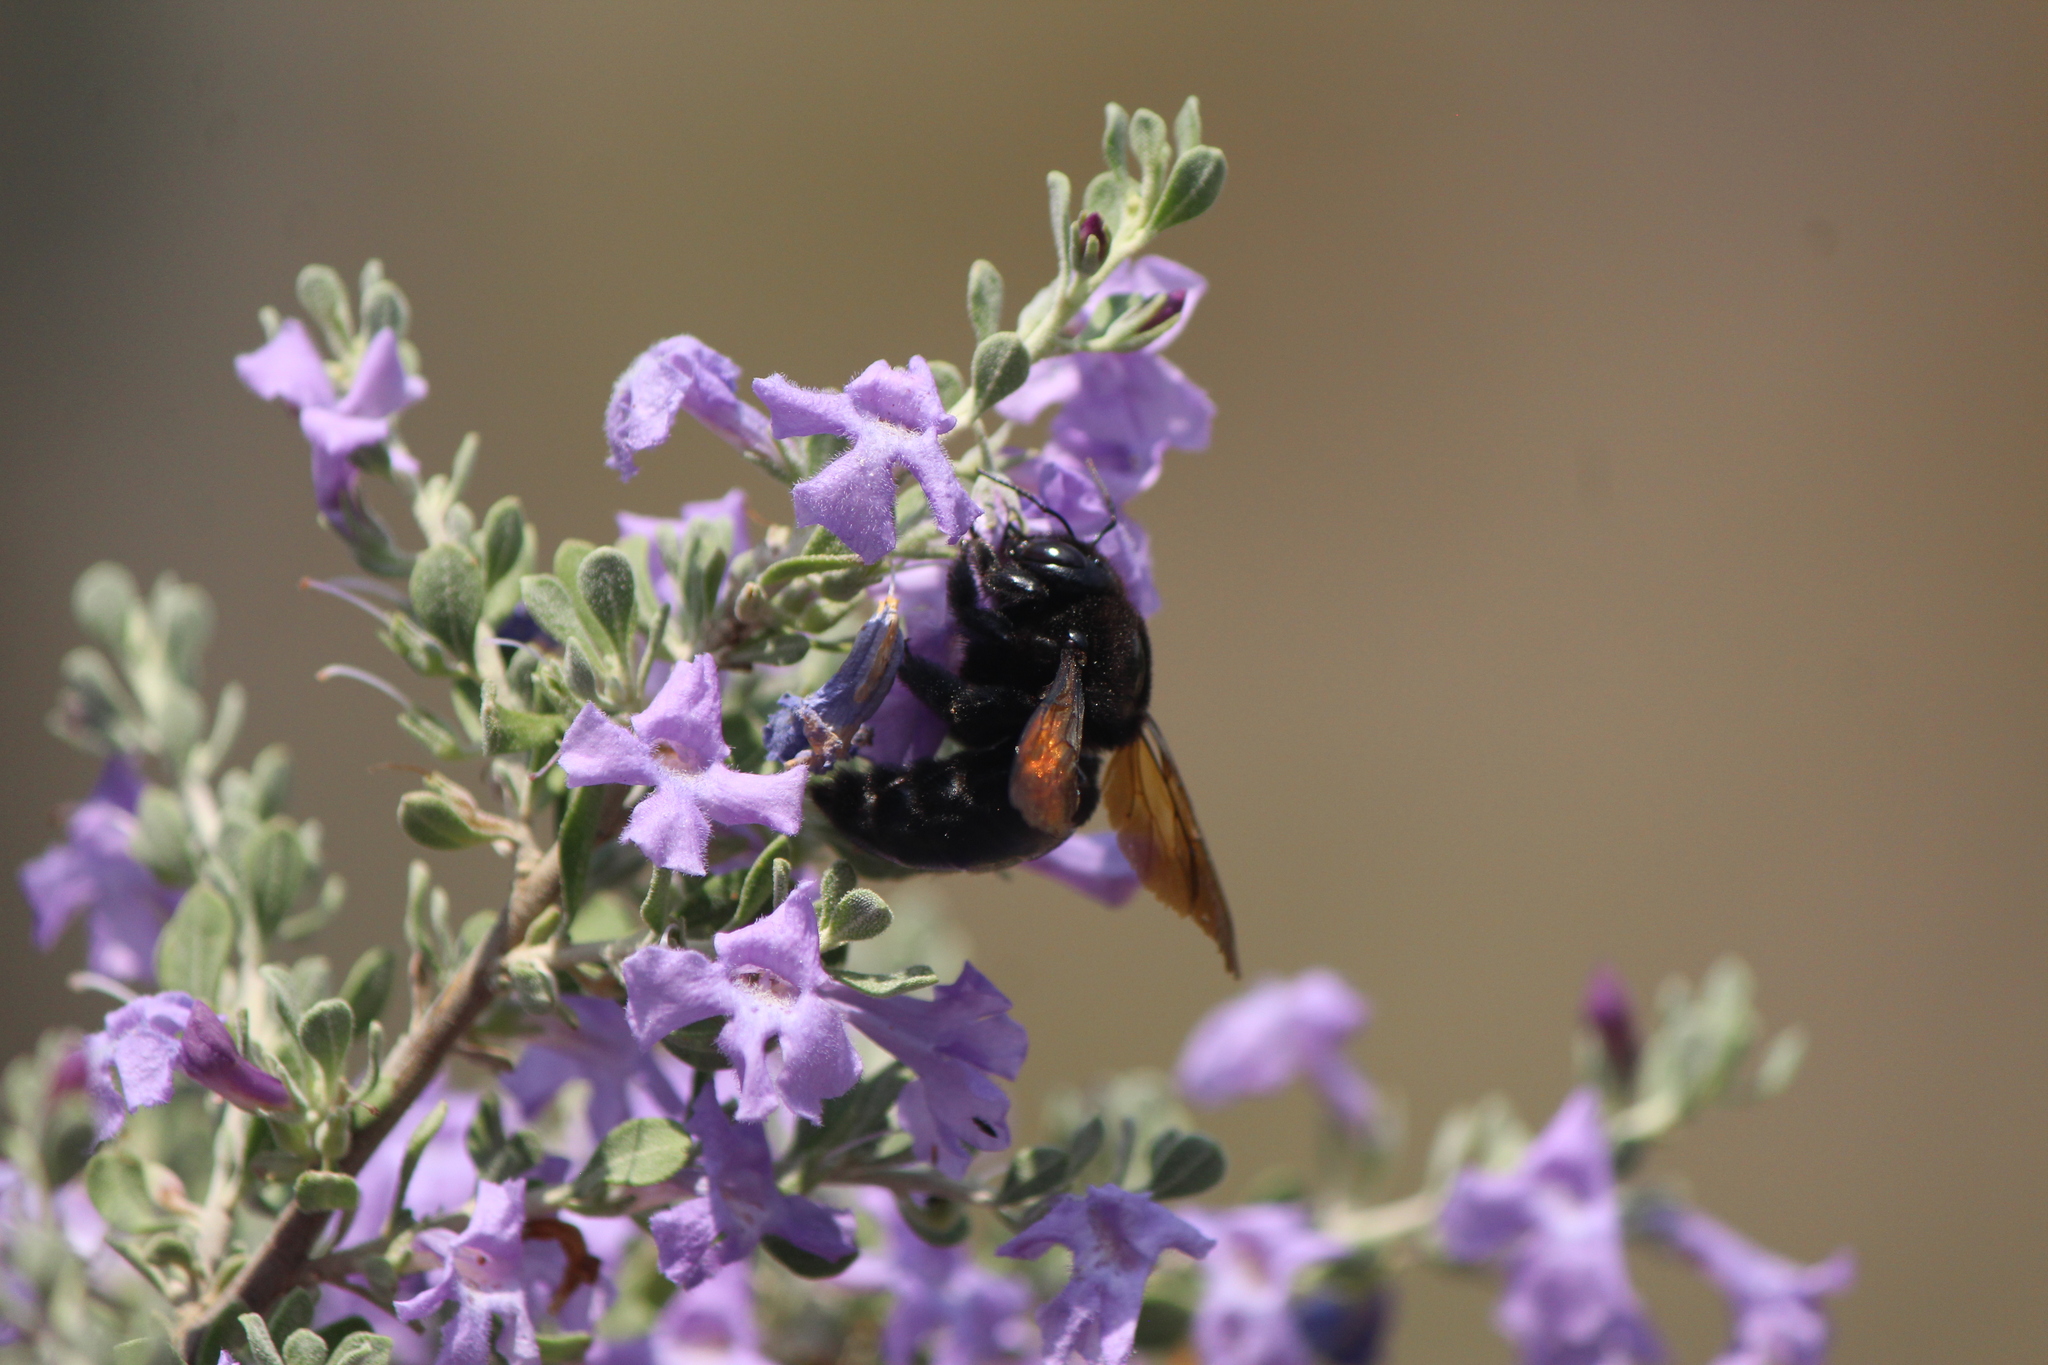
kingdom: Animalia
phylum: Arthropoda
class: Insecta
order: Hymenoptera
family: Apidae
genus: Xylocopa
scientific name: Xylocopa sonorina
